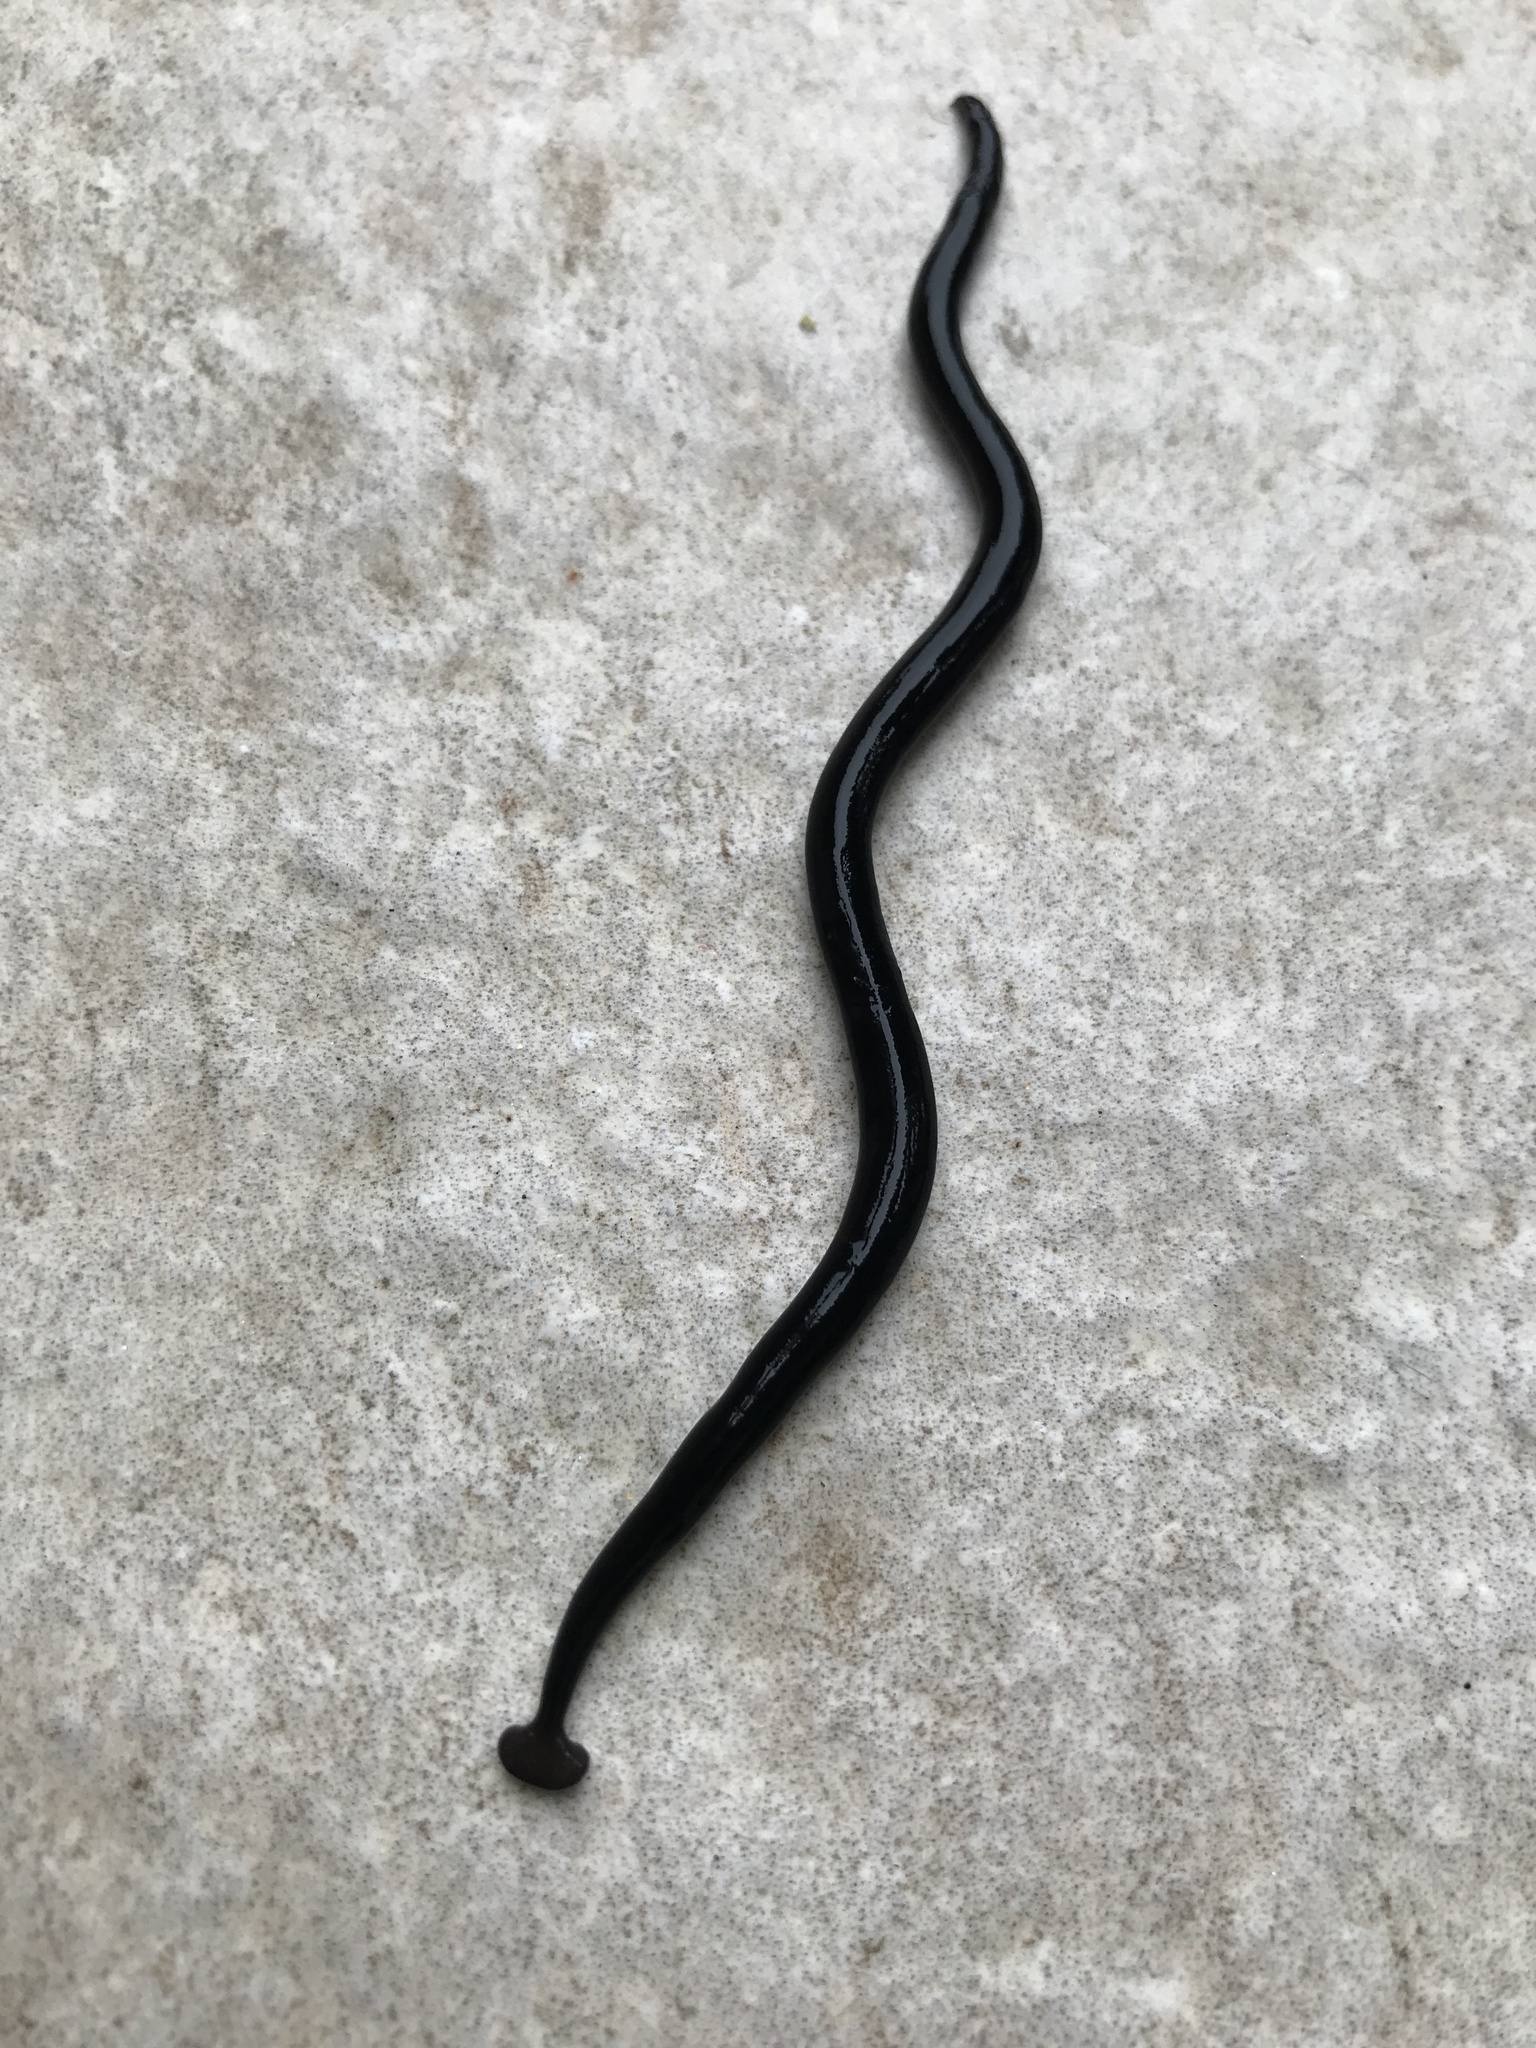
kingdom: Animalia
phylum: Platyhelminthes
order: Tricladida
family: Geoplanidae
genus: Bipalium
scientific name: Bipalium javanum
